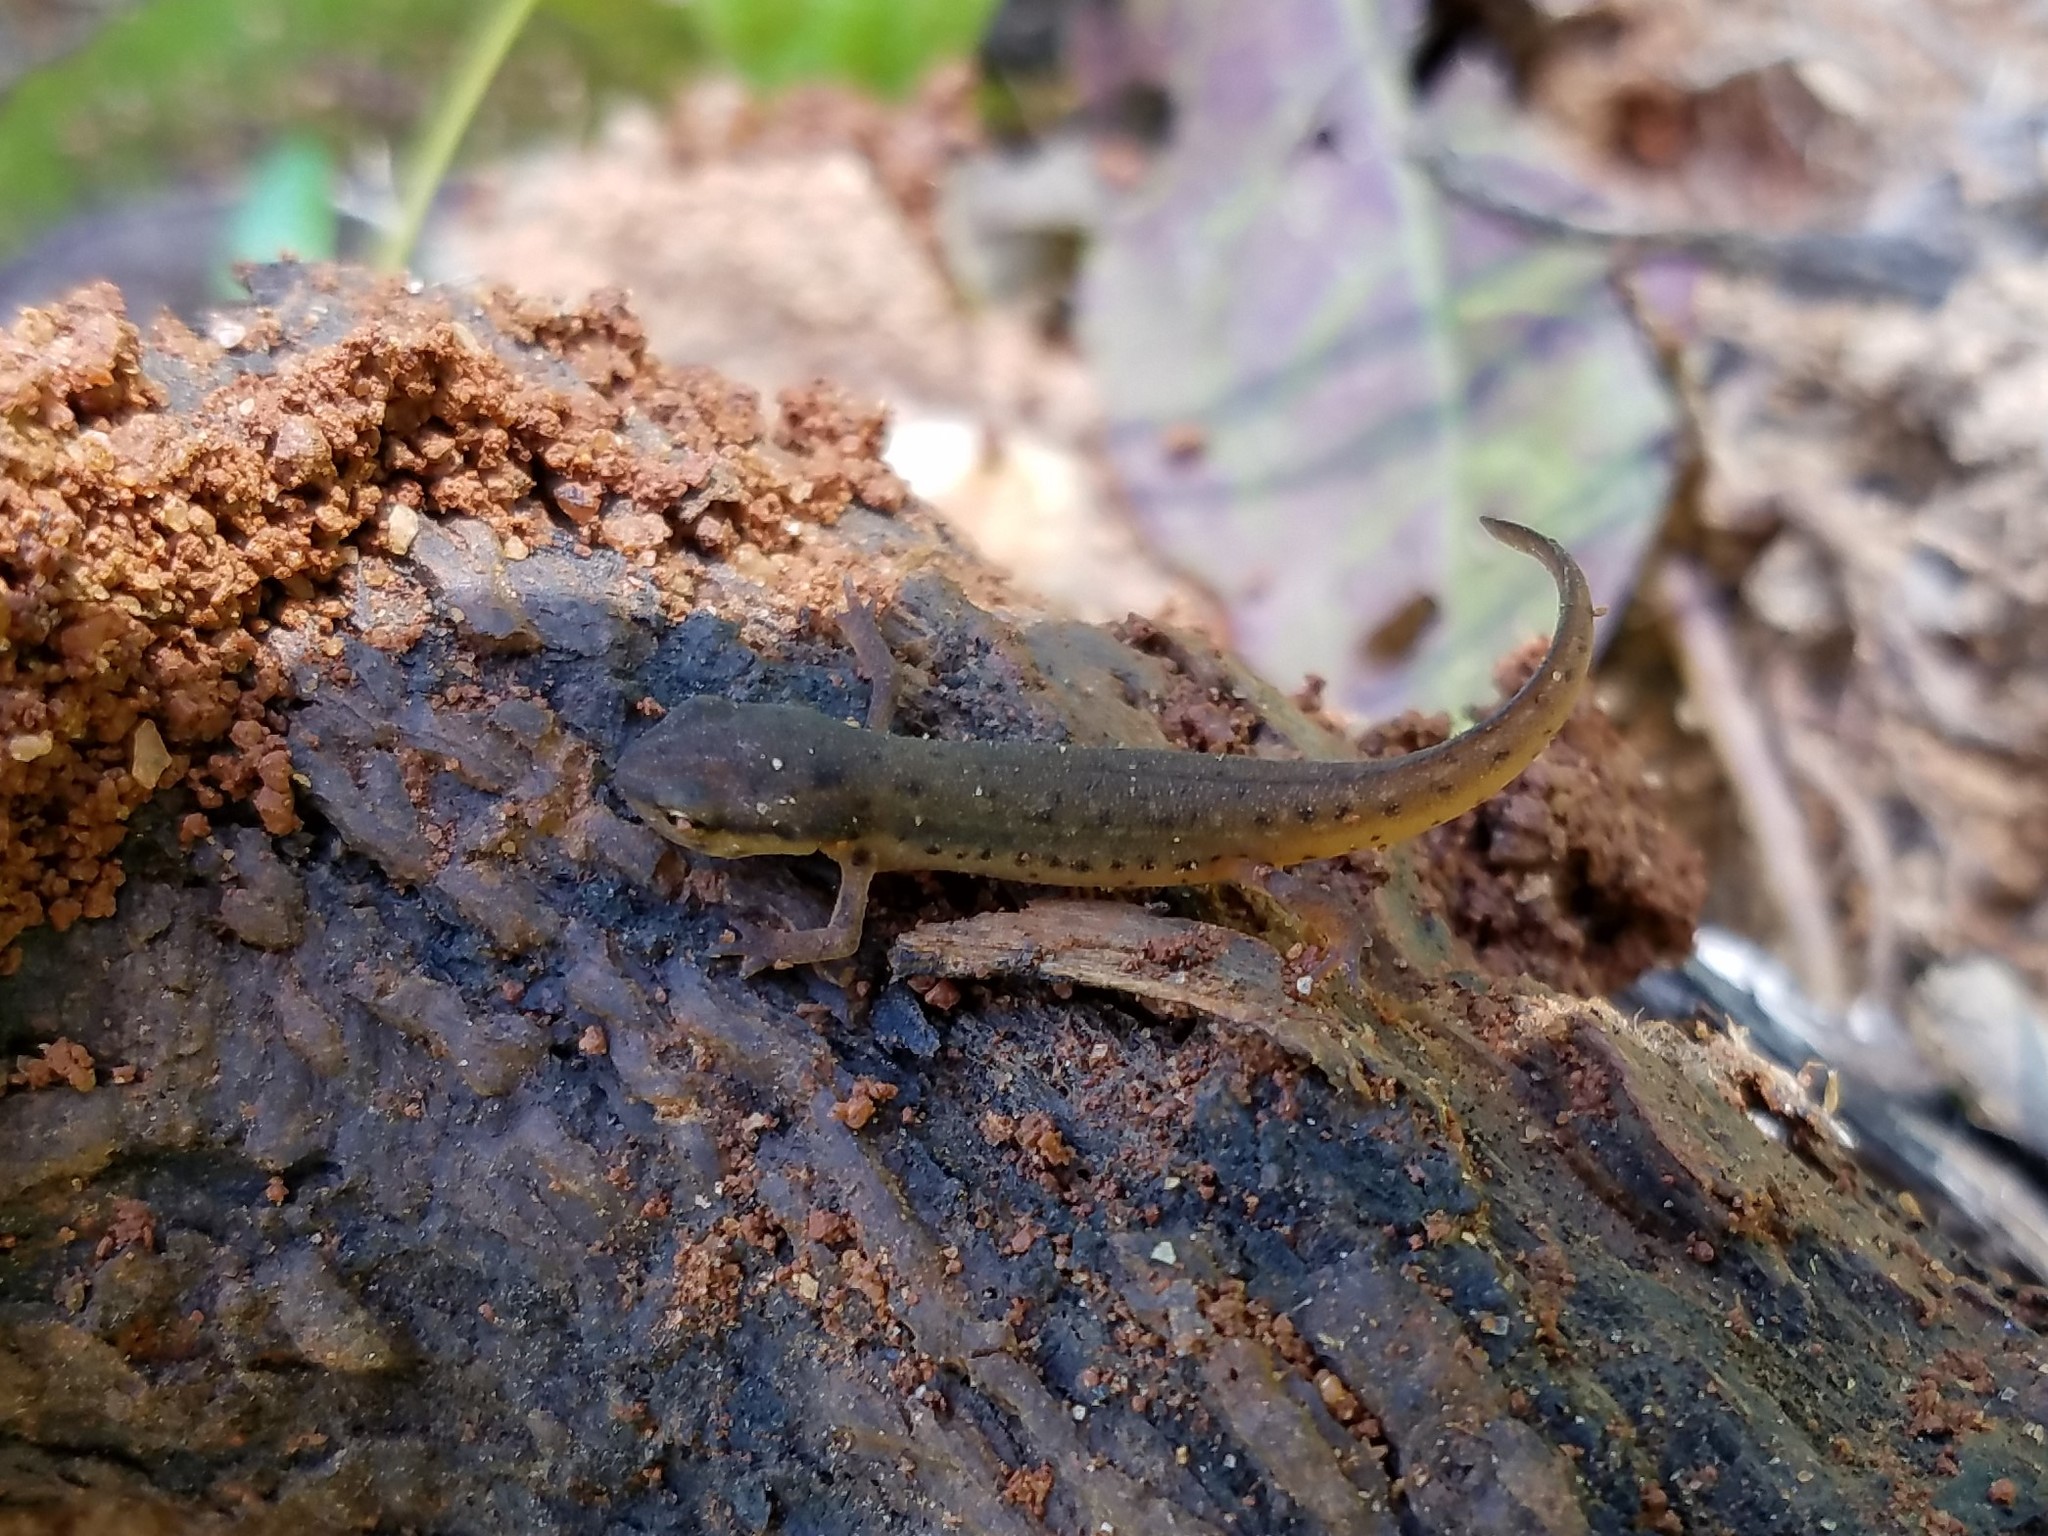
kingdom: Animalia
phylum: Chordata
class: Amphibia
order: Caudata
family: Salamandridae
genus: Notophthalmus
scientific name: Notophthalmus viridescens
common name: Eastern newt
